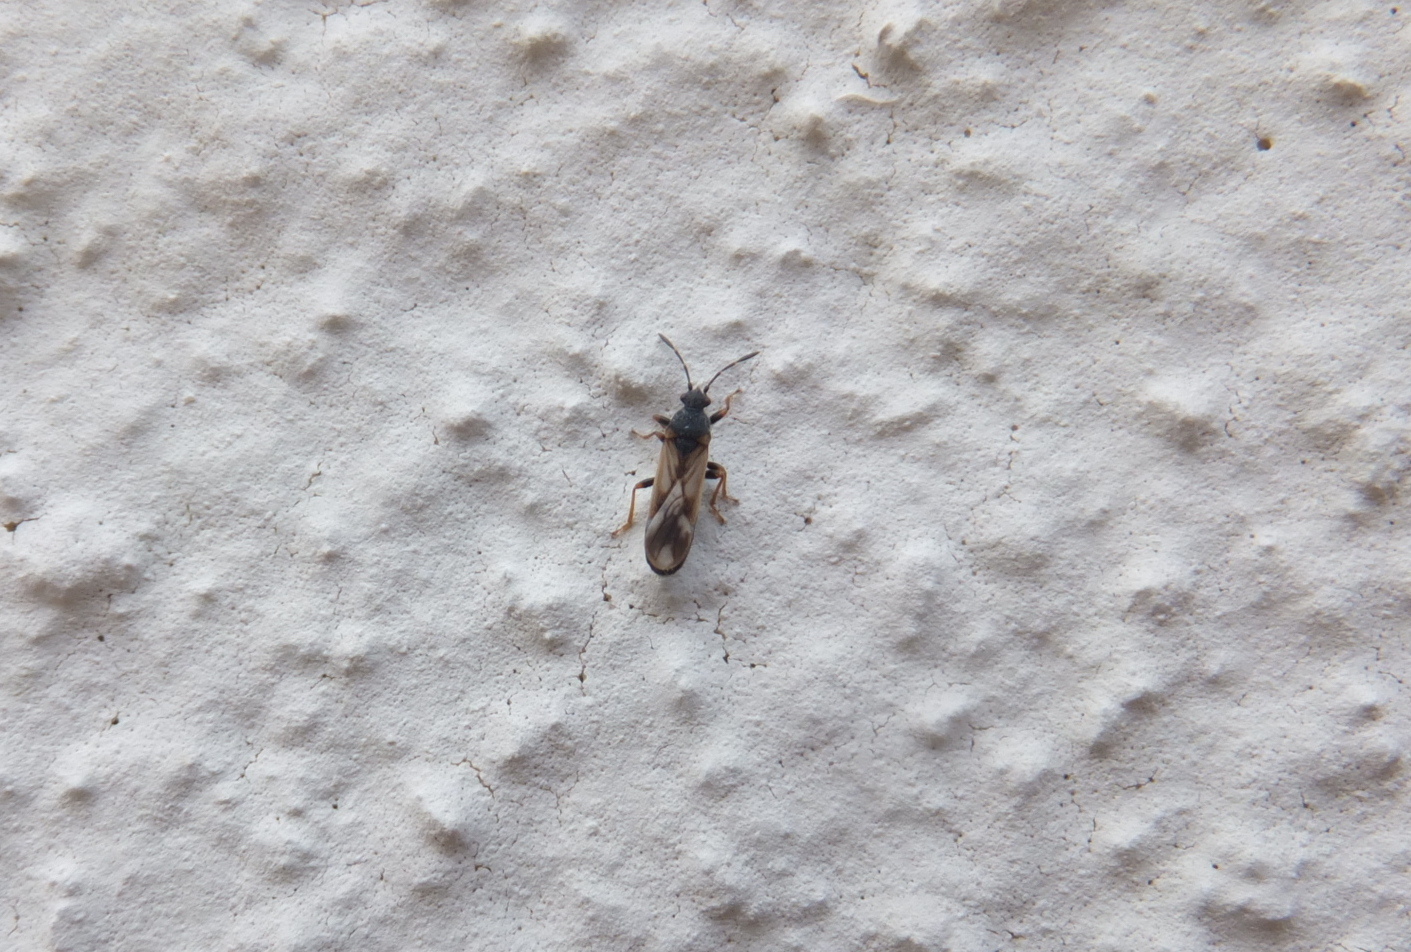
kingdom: Animalia
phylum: Arthropoda
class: Insecta
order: Hemiptera
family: Blissidae
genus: Ischnodemus
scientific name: Ischnodemus sabuleti
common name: European cinchbug
